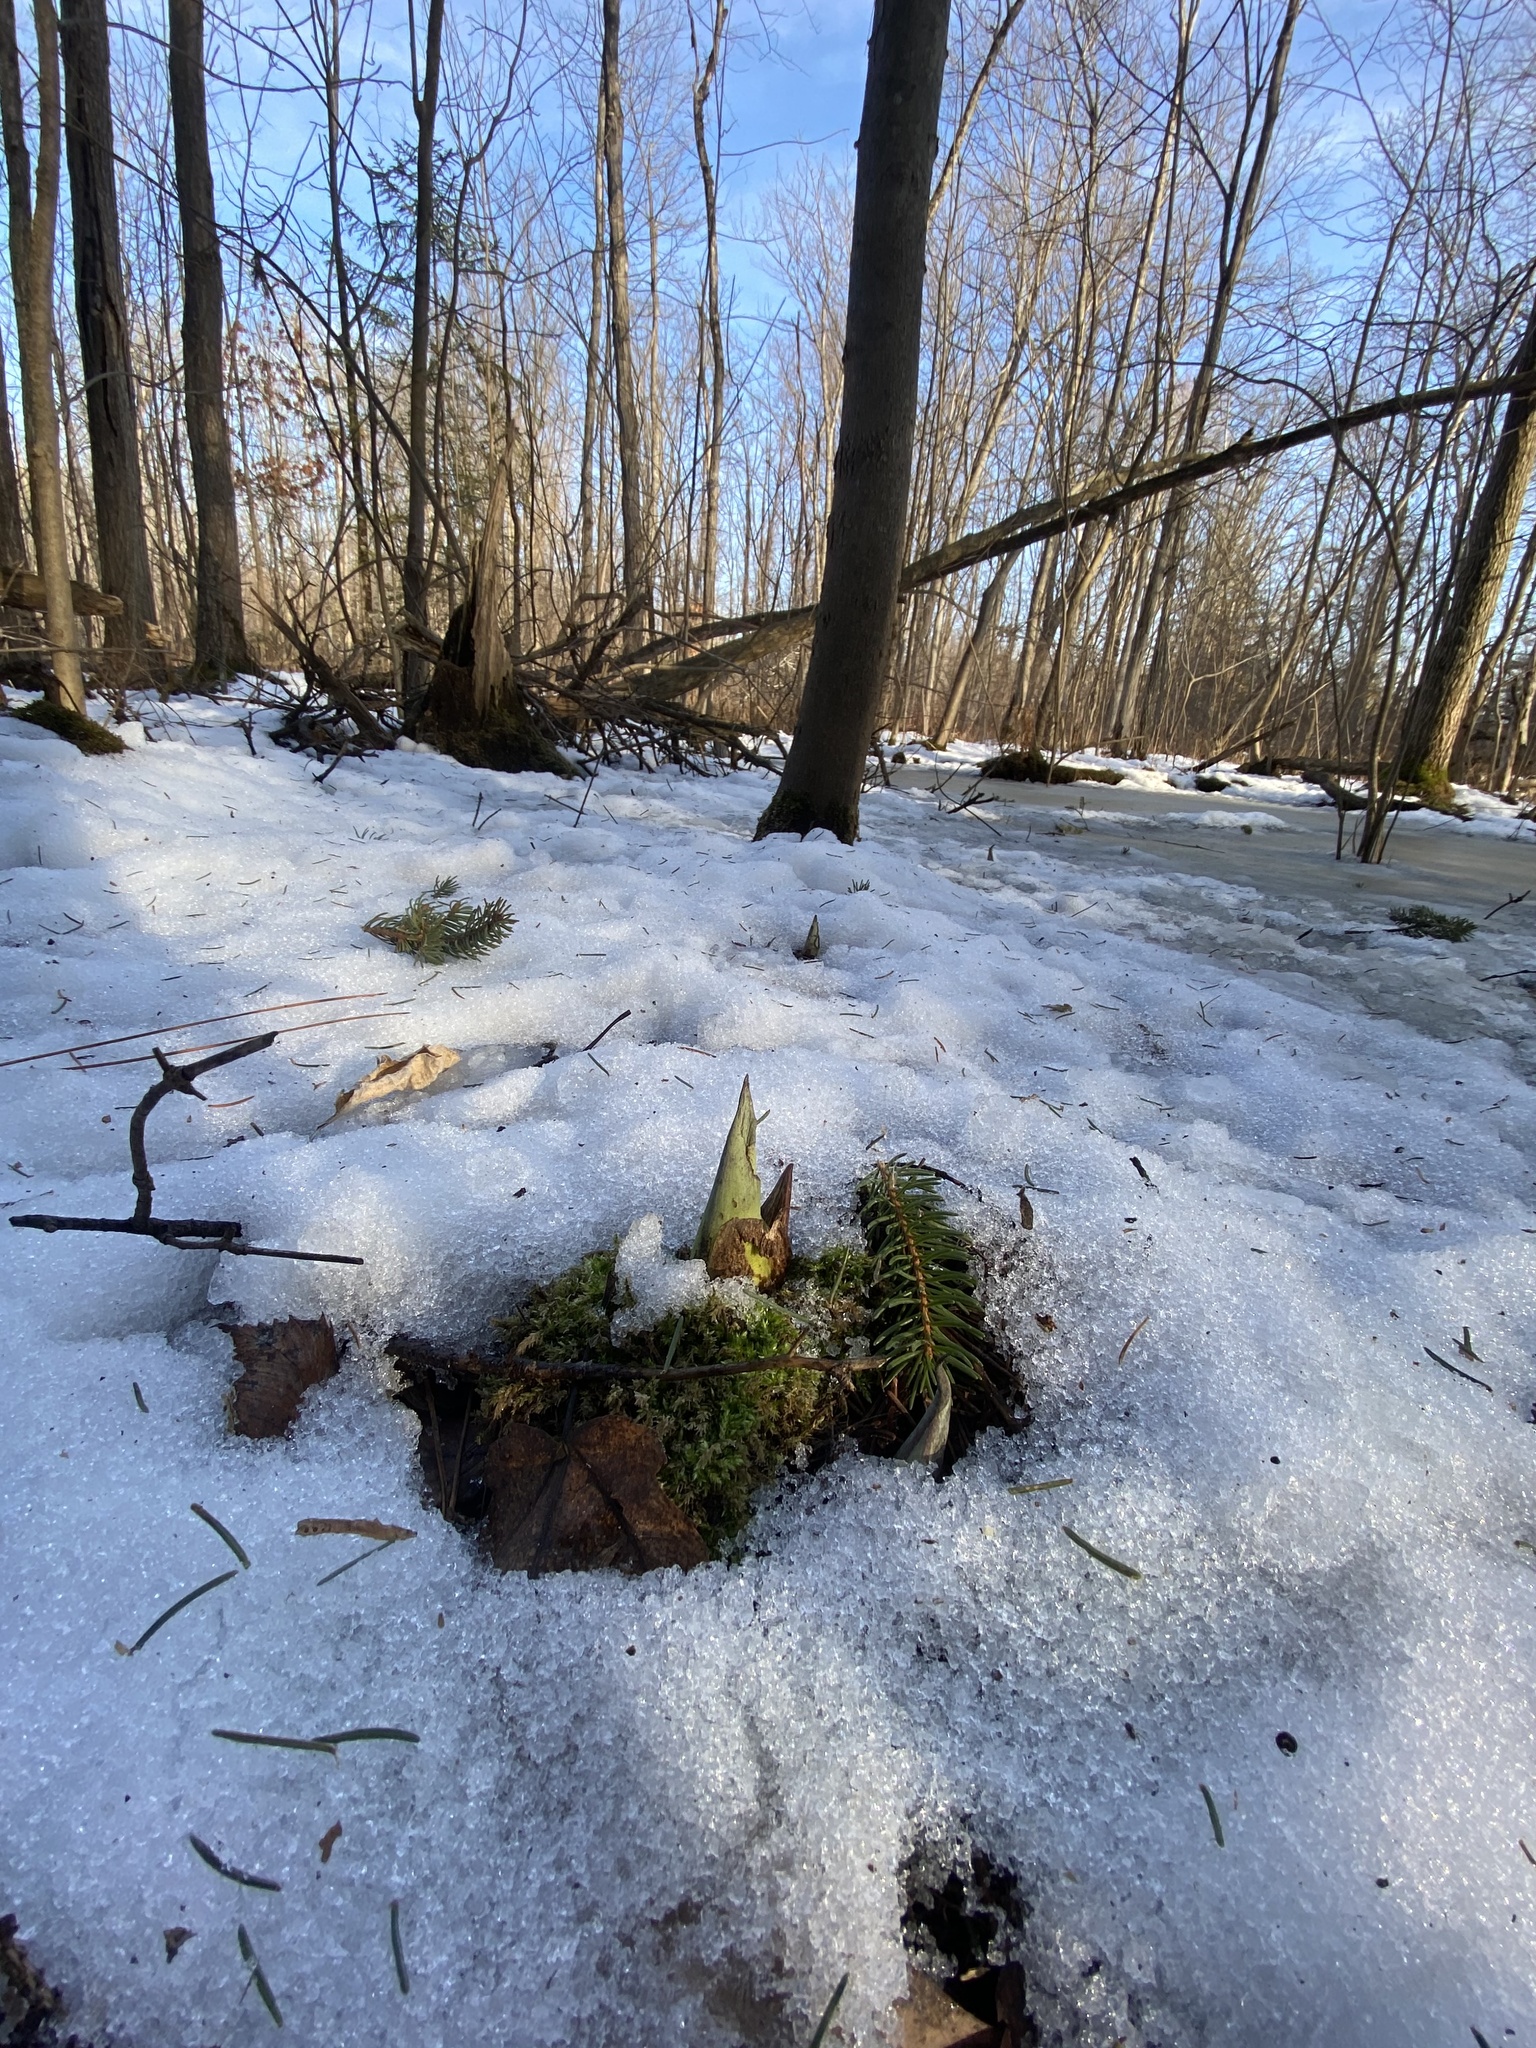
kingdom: Plantae
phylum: Tracheophyta
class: Liliopsida
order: Alismatales
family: Araceae
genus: Symplocarpus
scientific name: Symplocarpus foetidus
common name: Eastern skunk cabbage
